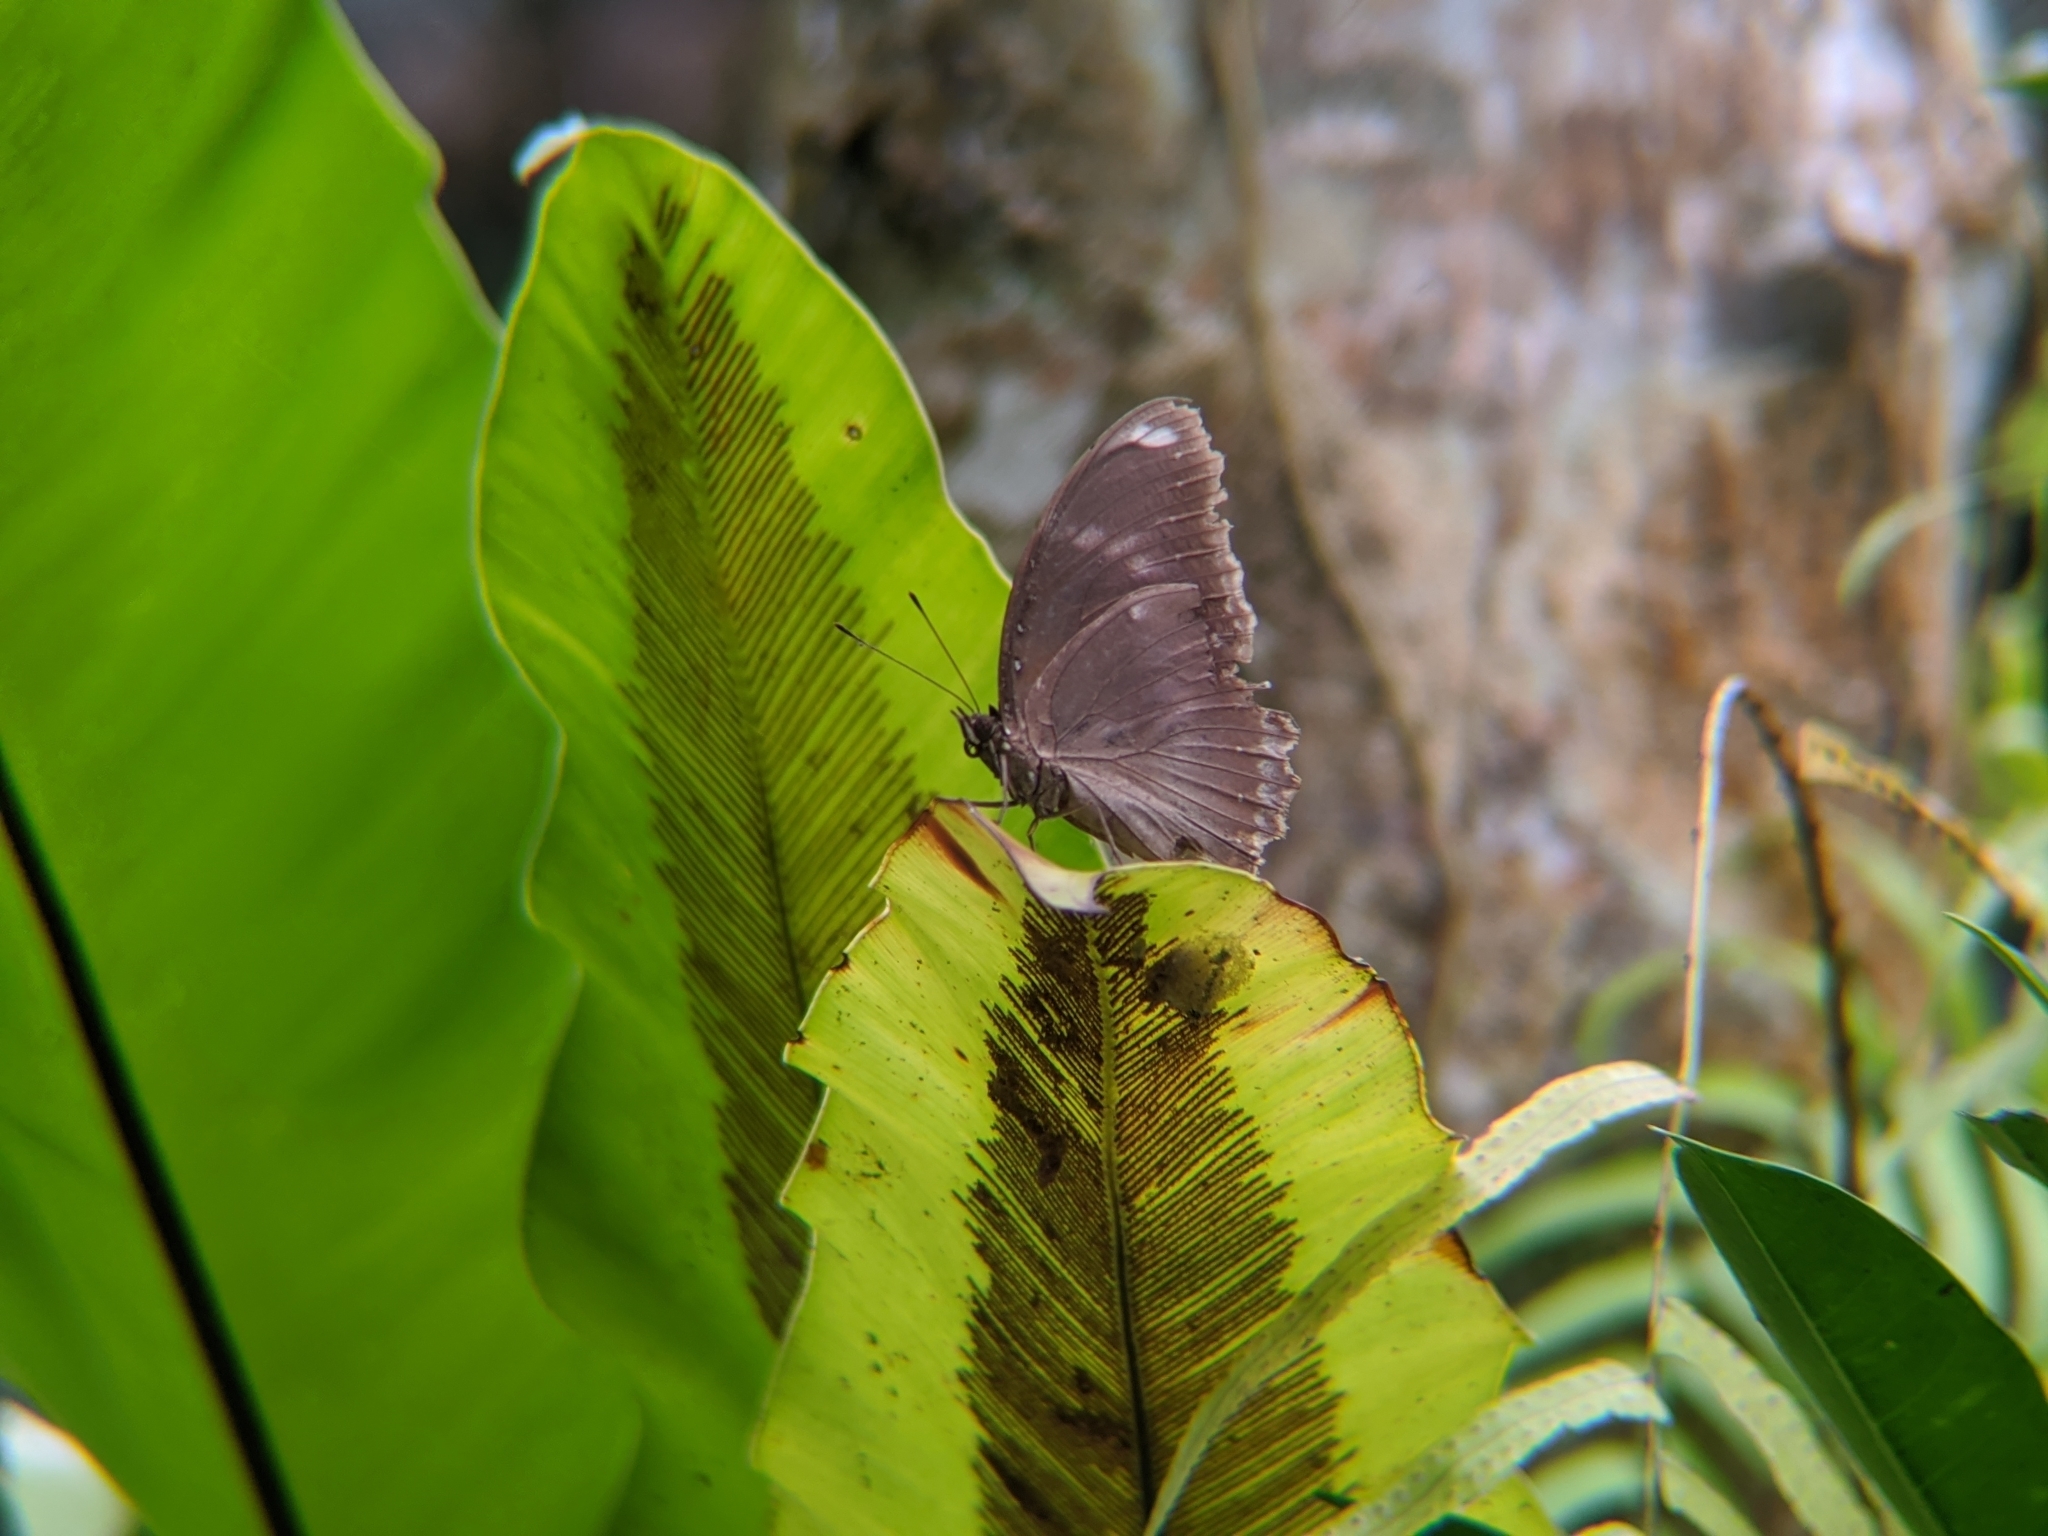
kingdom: Animalia
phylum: Arthropoda
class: Insecta
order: Lepidoptera
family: Nymphalidae
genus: Hypolimnas
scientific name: Hypolimnas bolina
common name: Great eggfly
